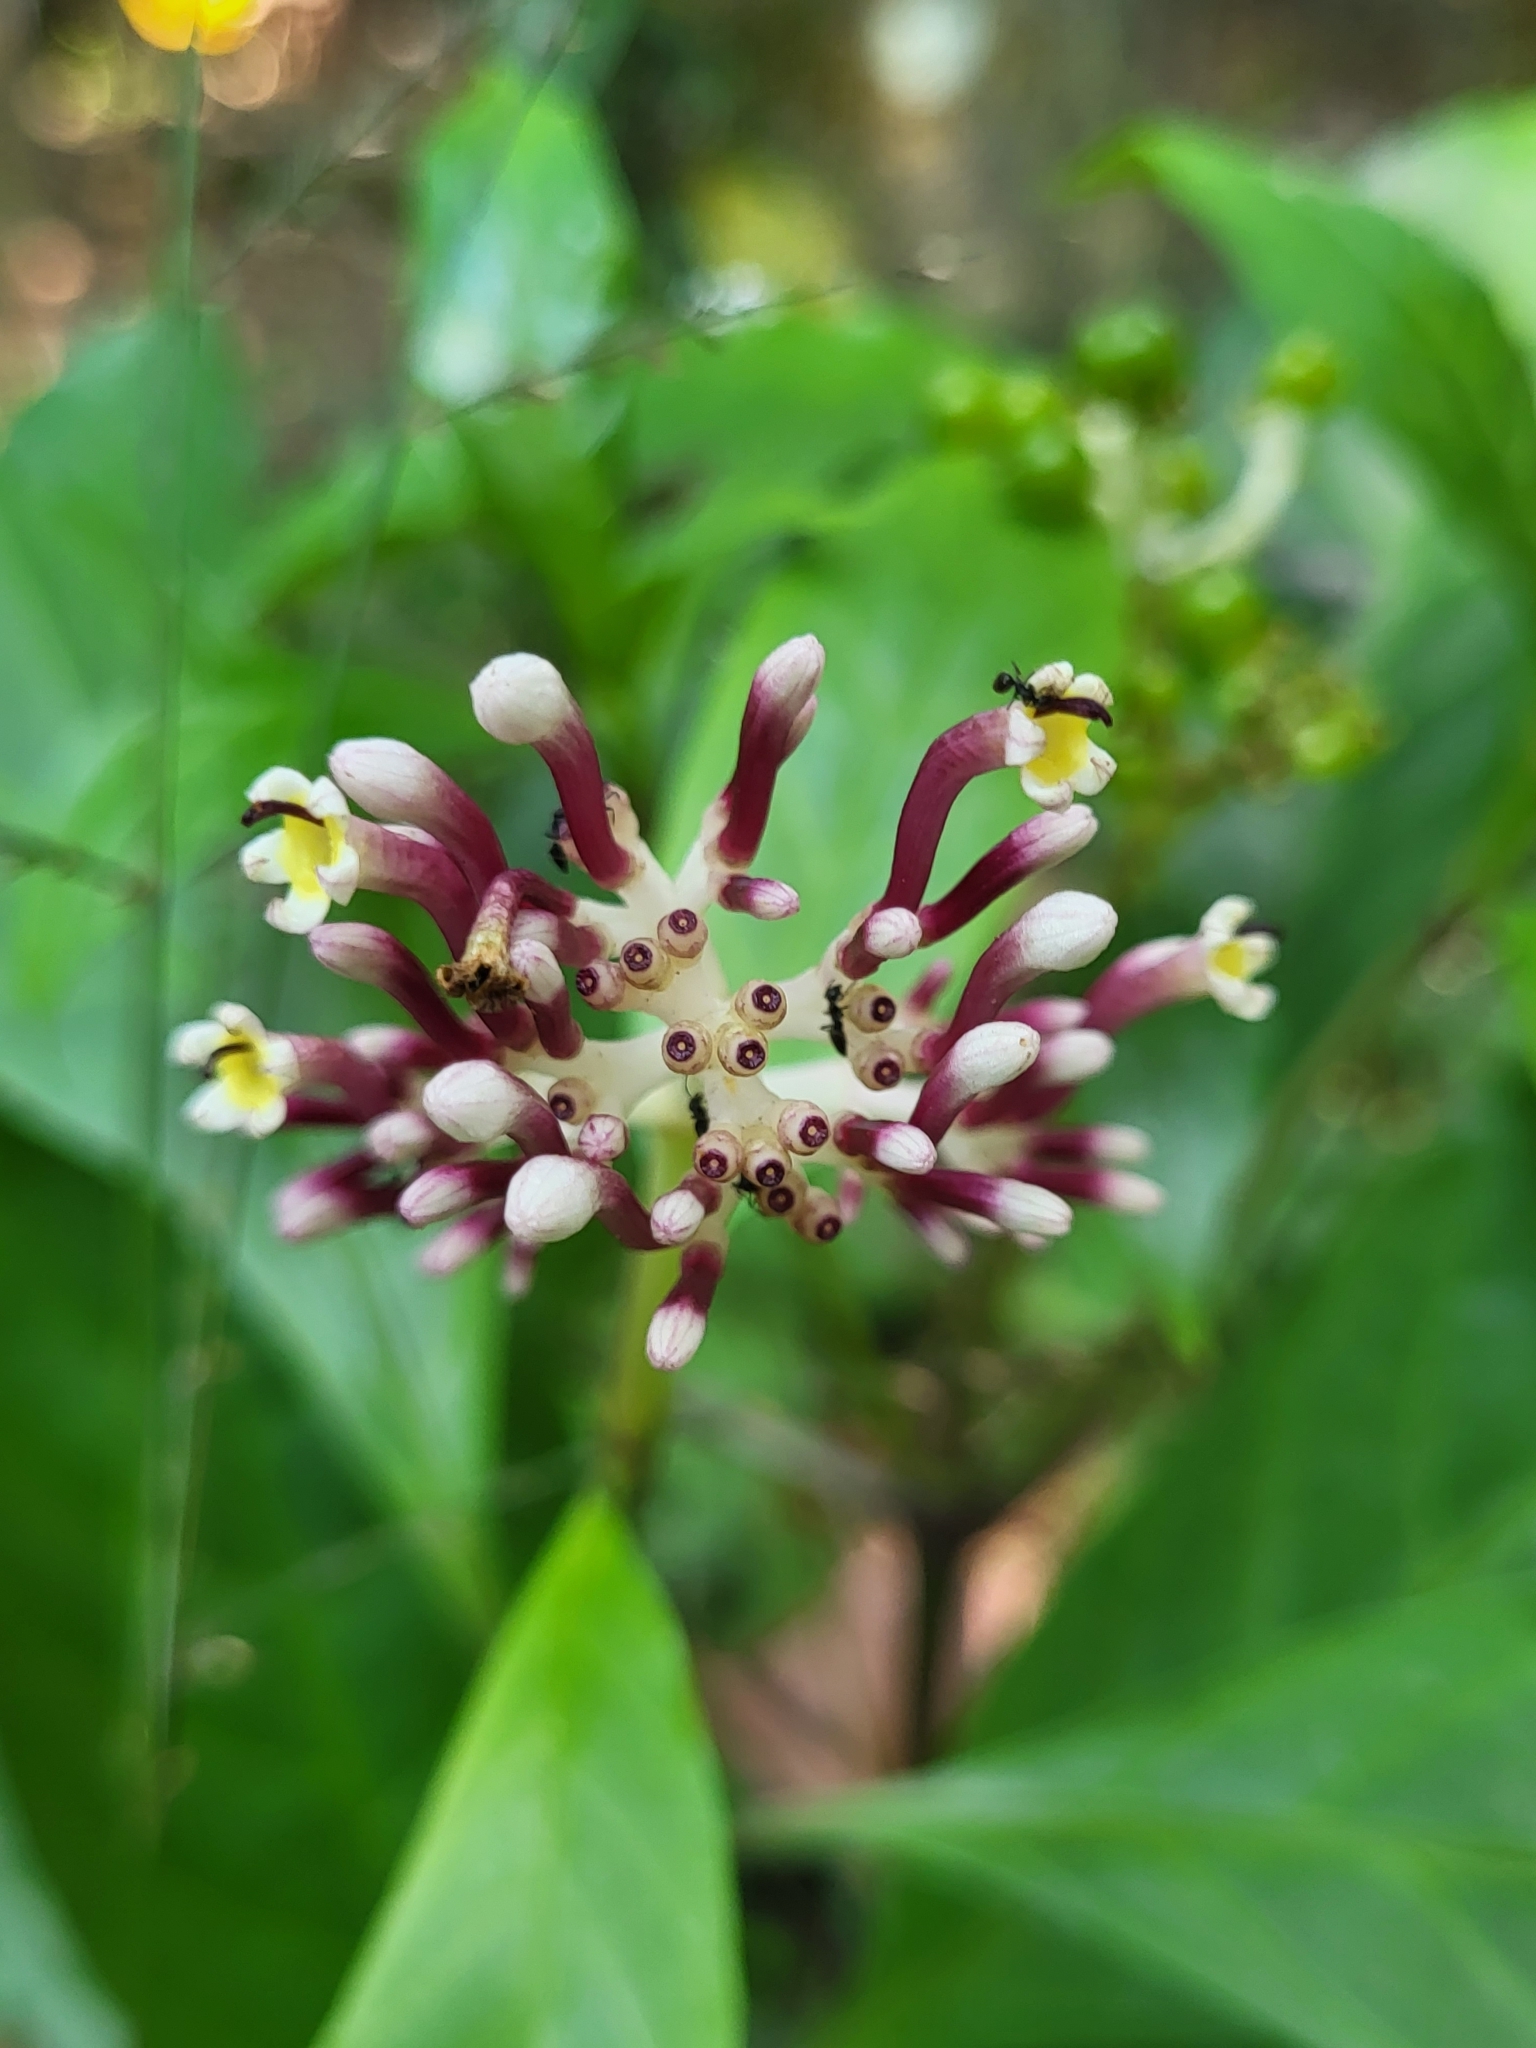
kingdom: Plantae
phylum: Tracheophyta
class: Magnoliopsida
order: Gentianales
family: Rubiaceae
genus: Chassalia
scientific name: Chassalia curviflora
